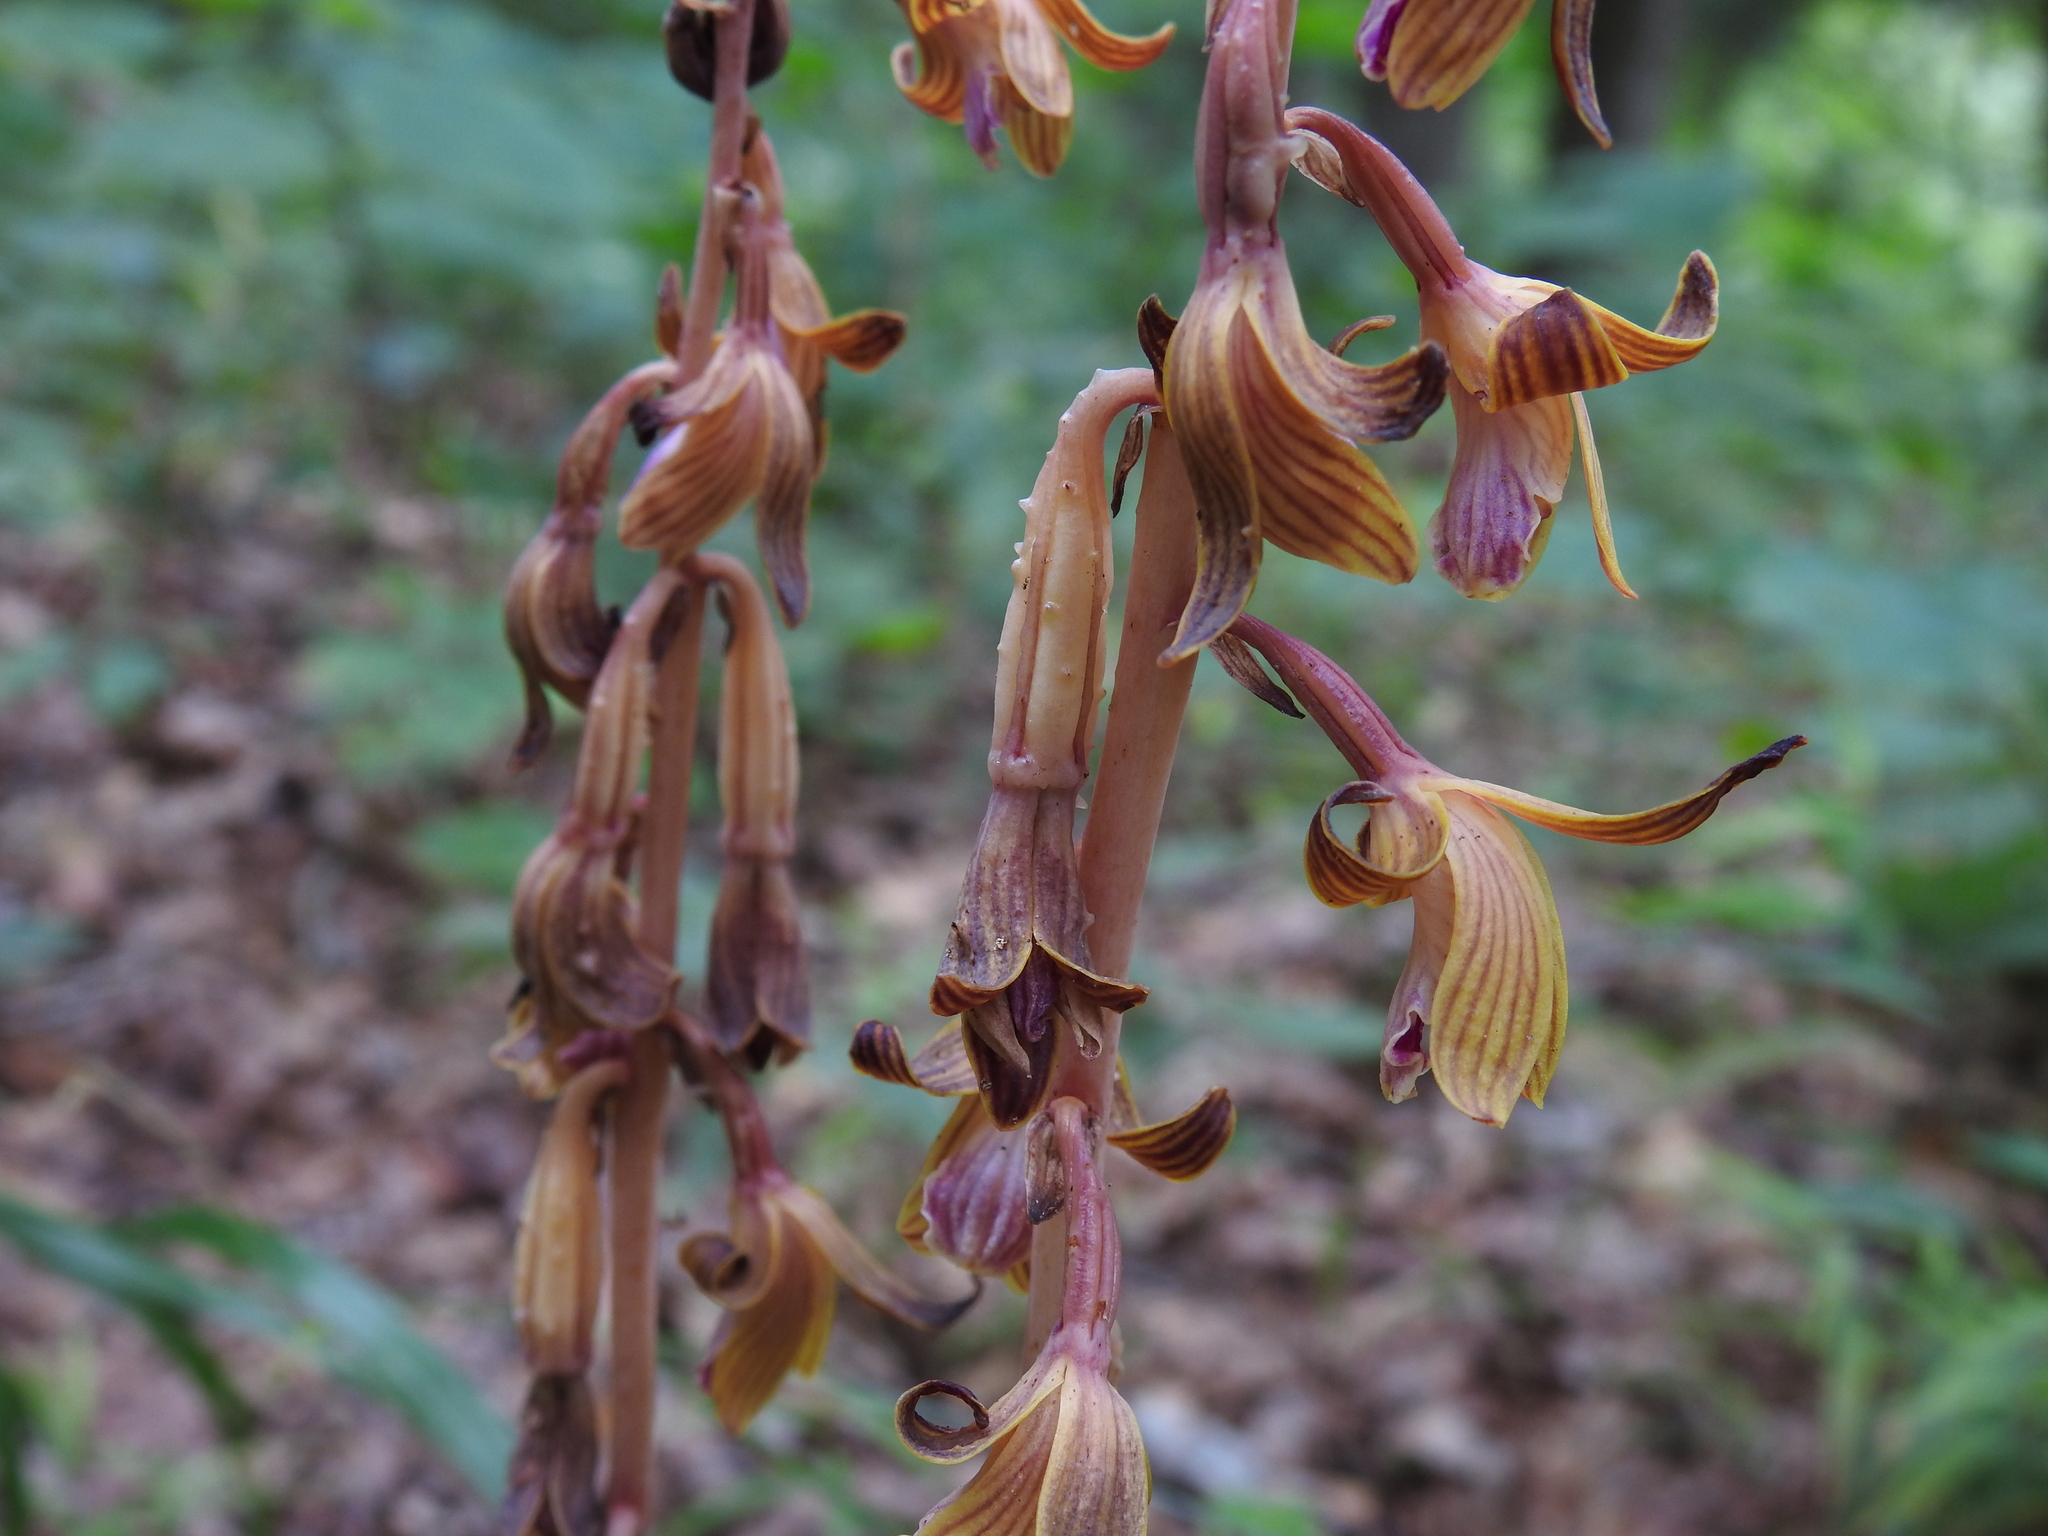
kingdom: Plantae
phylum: Tracheophyta
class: Liliopsida
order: Asparagales
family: Orchidaceae
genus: Bletia
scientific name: Bletia spicata
